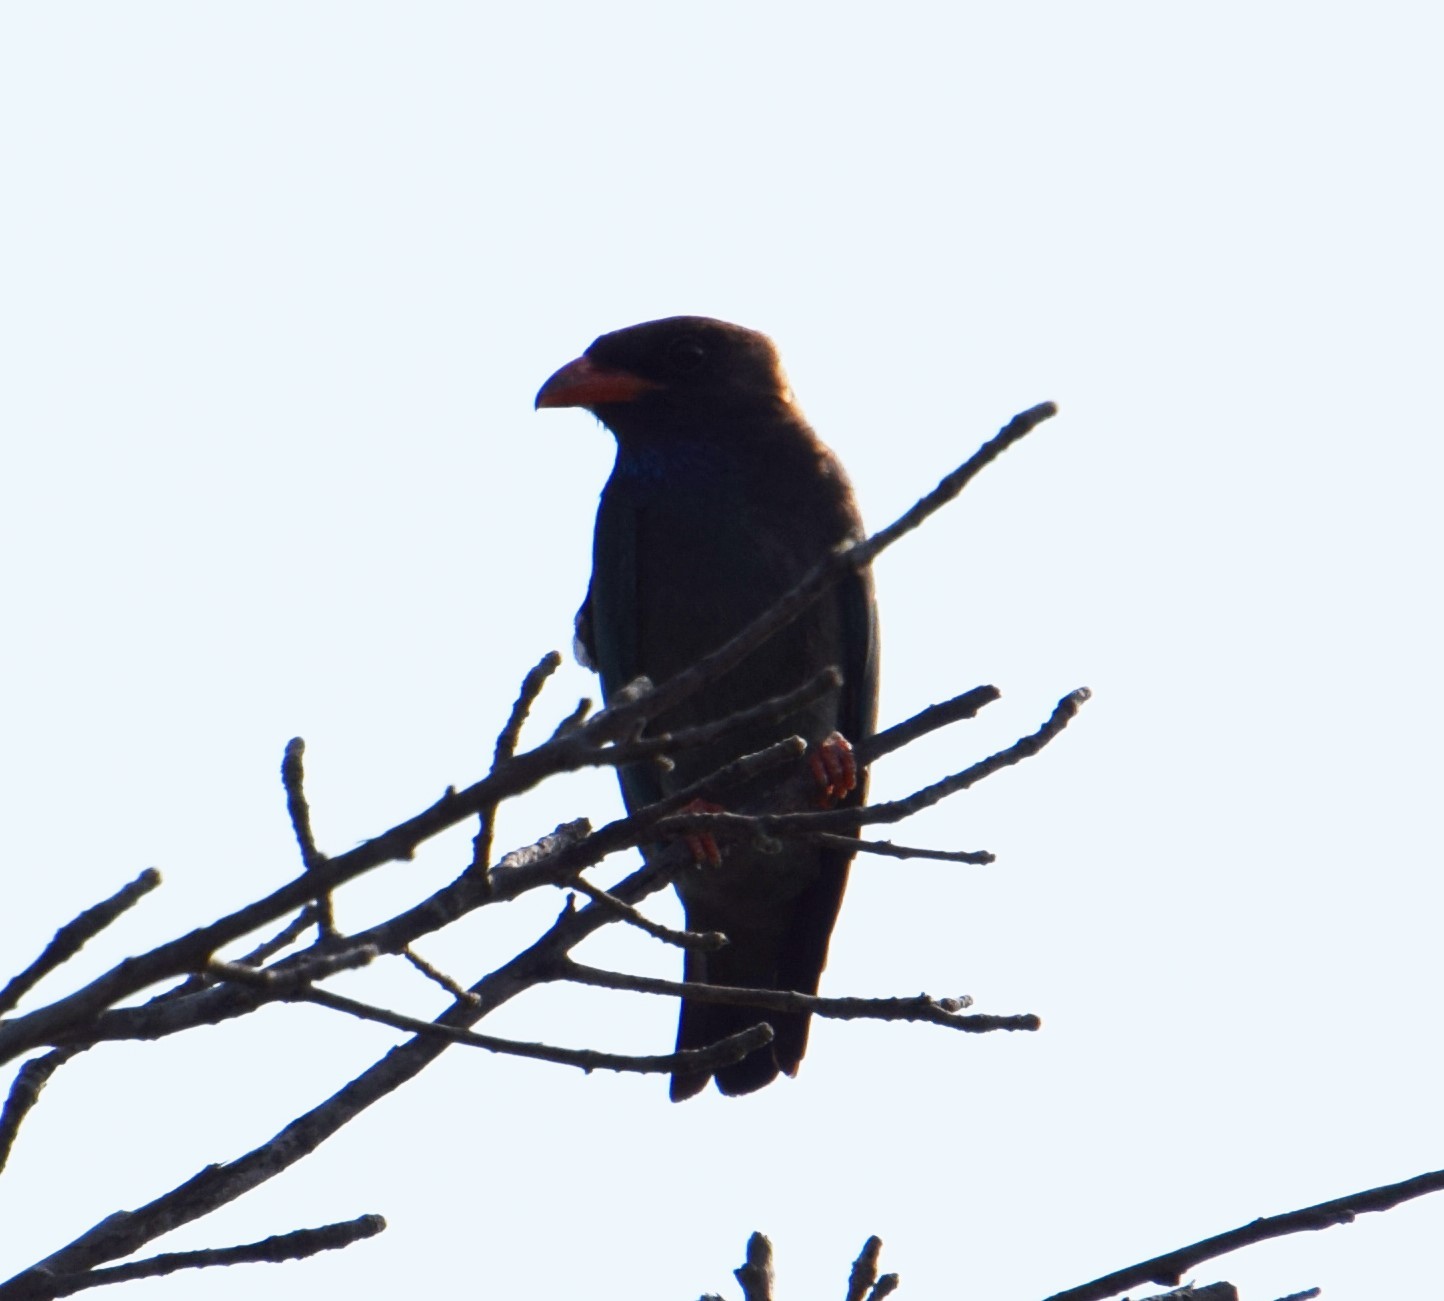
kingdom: Animalia
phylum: Chordata
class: Aves
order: Coraciiformes
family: Coraciidae
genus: Eurystomus
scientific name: Eurystomus orientalis
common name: Oriental dollarbird
